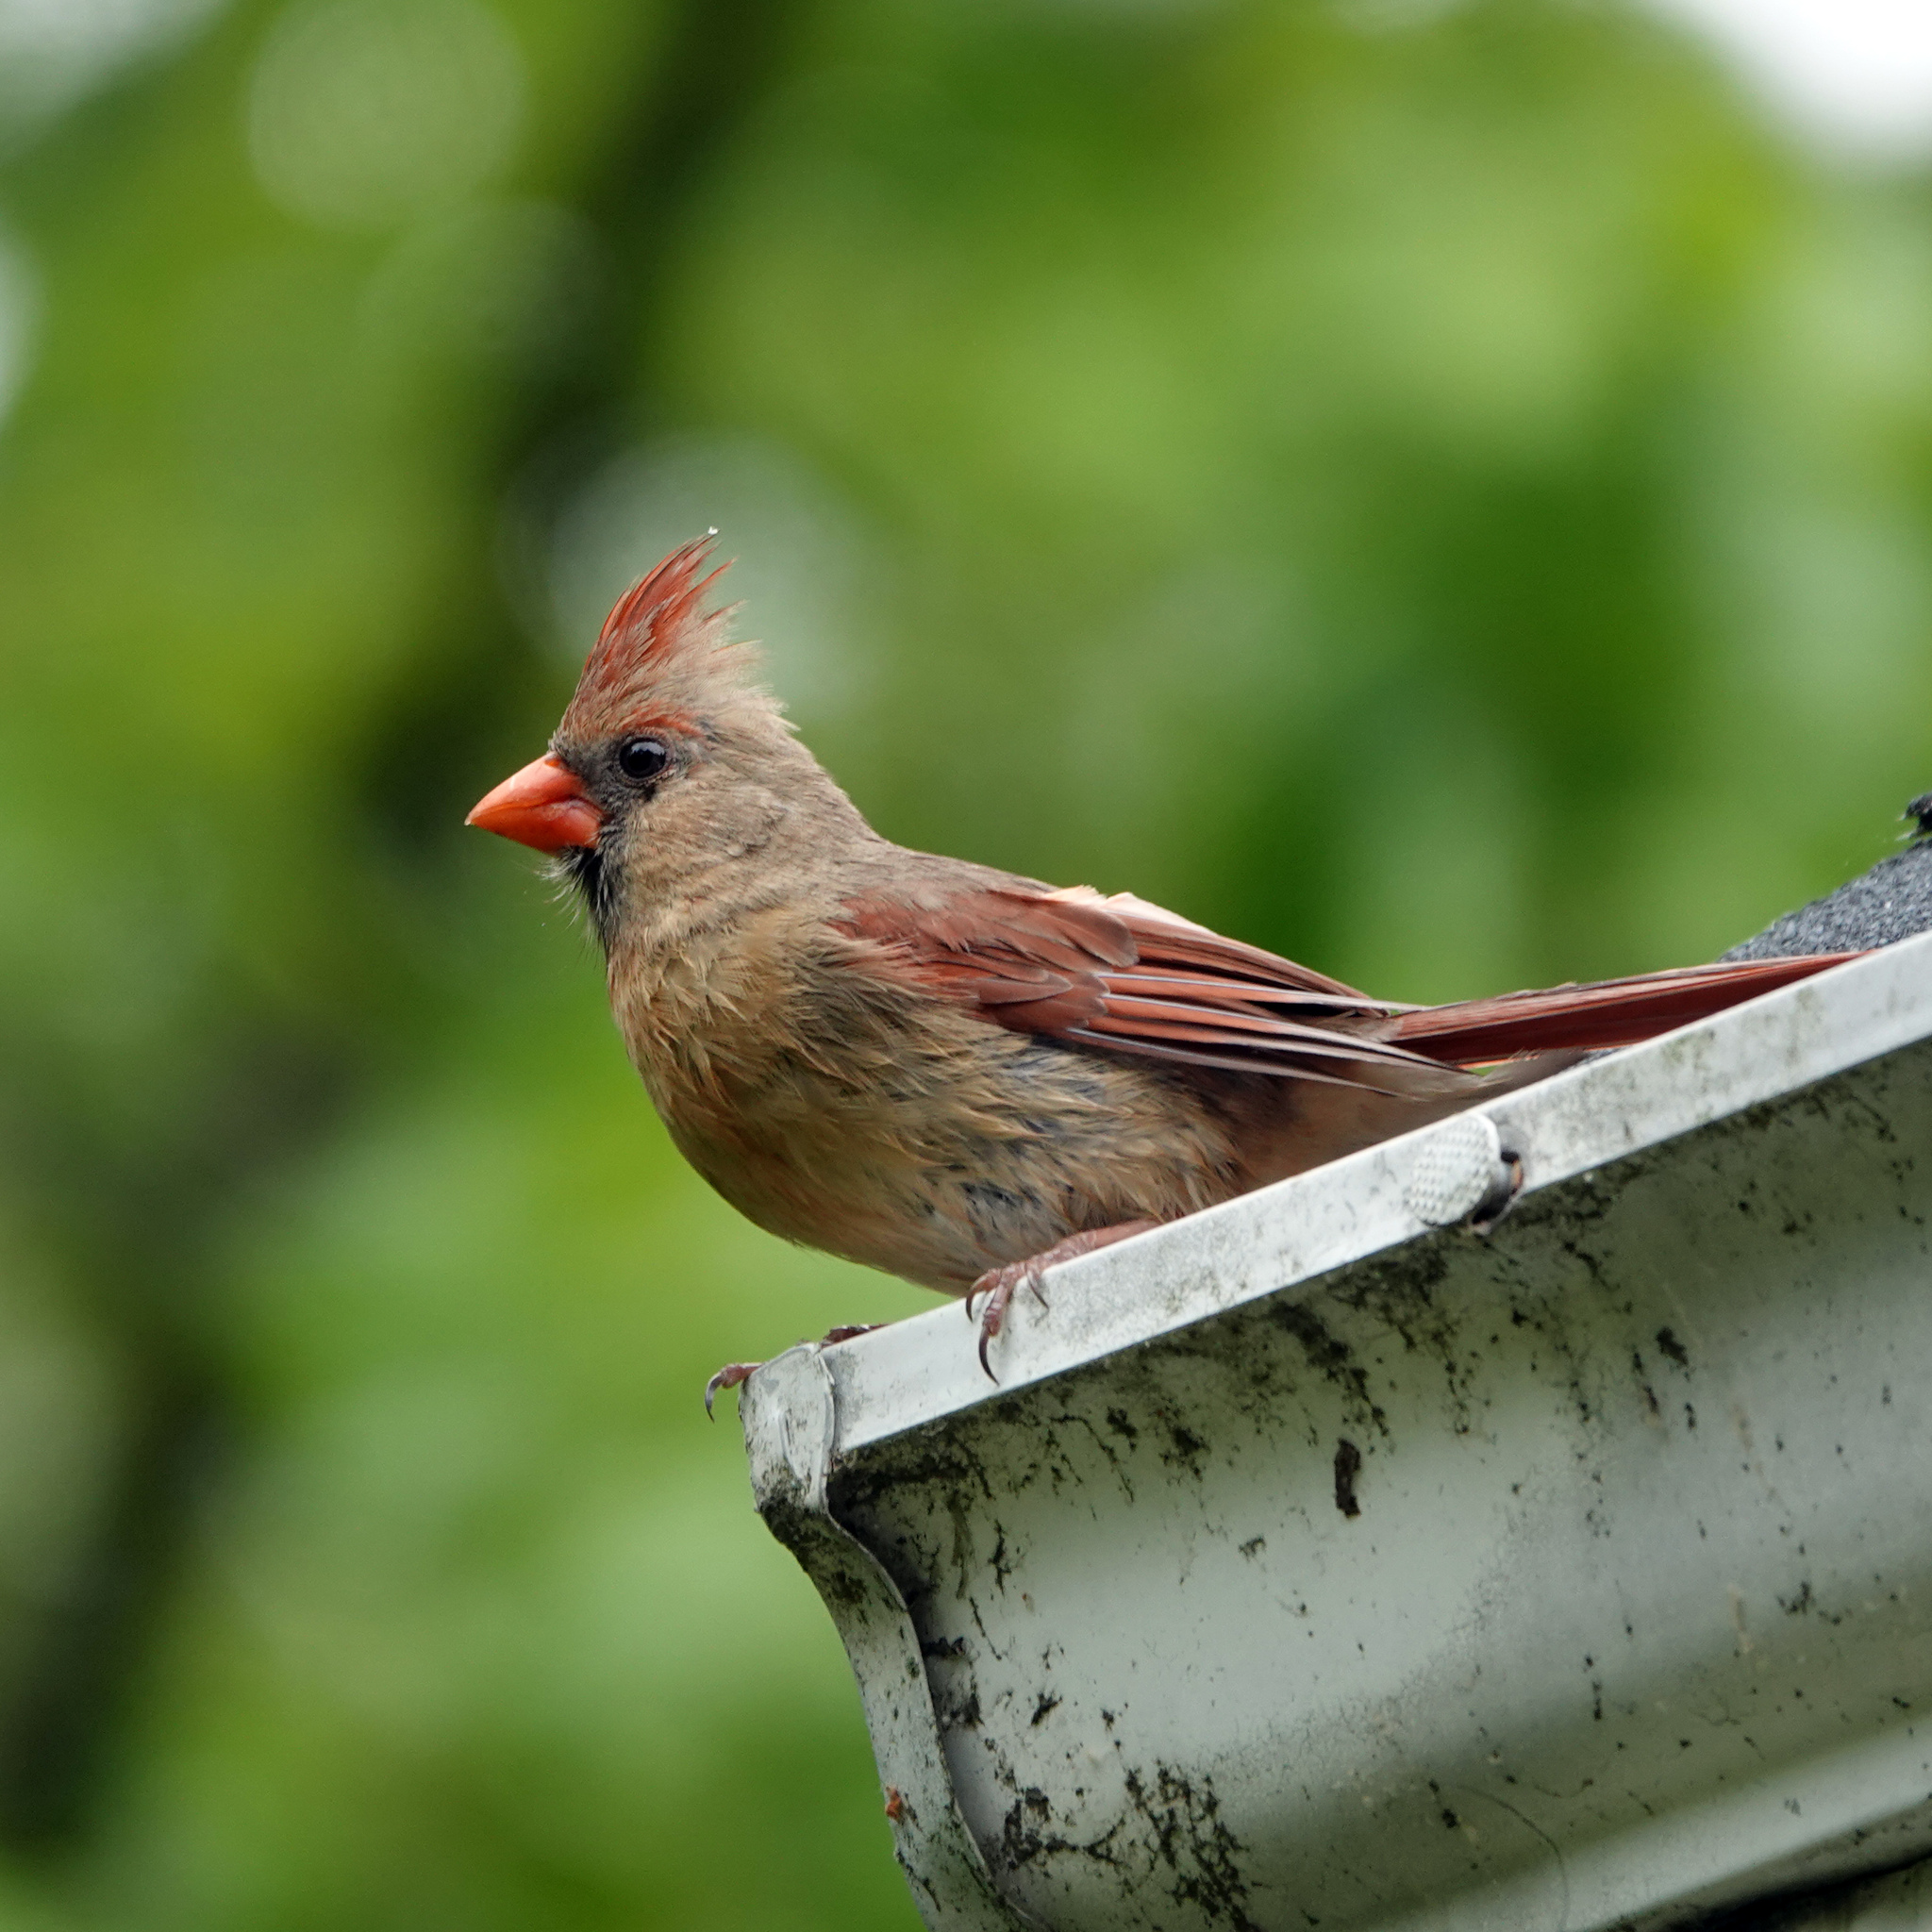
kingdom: Animalia
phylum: Chordata
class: Aves
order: Passeriformes
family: Cardinalidae
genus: Cardinalis
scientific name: Cardinalis cardinalis
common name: Northern cardinal
